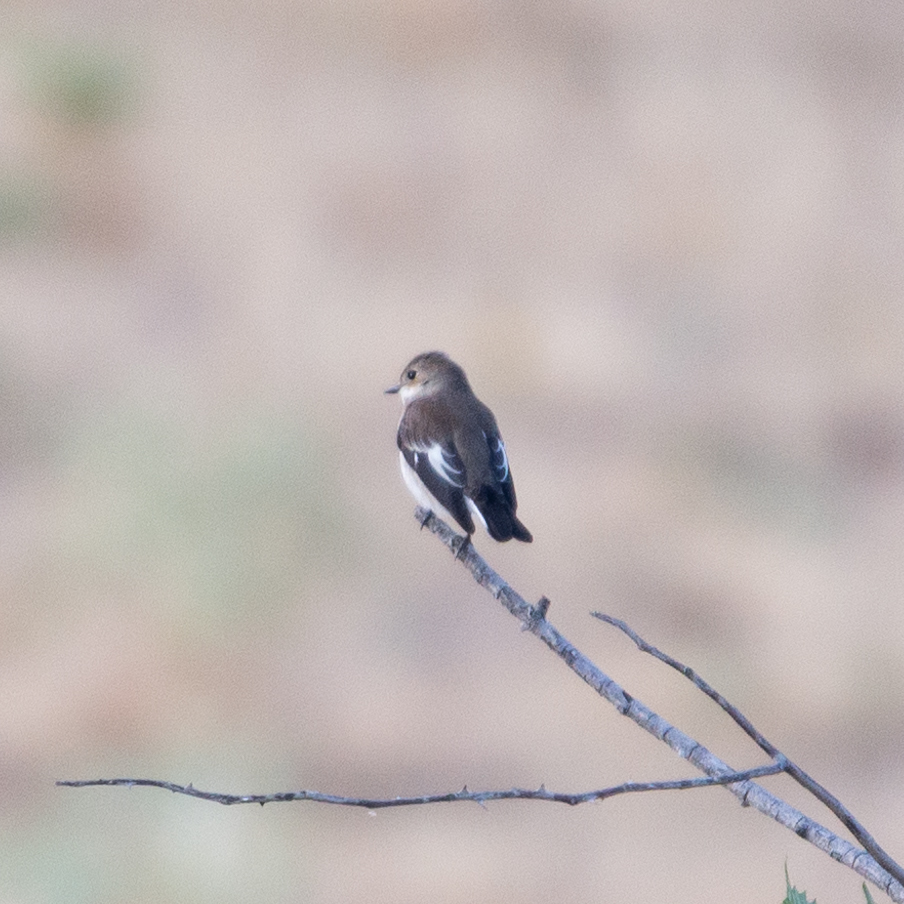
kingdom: Animalia
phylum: Chordata
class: Aves
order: Passeriformes
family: Muscicapidae
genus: Ficedula
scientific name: Ficedula hypoleuca
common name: European pied flycatcher
